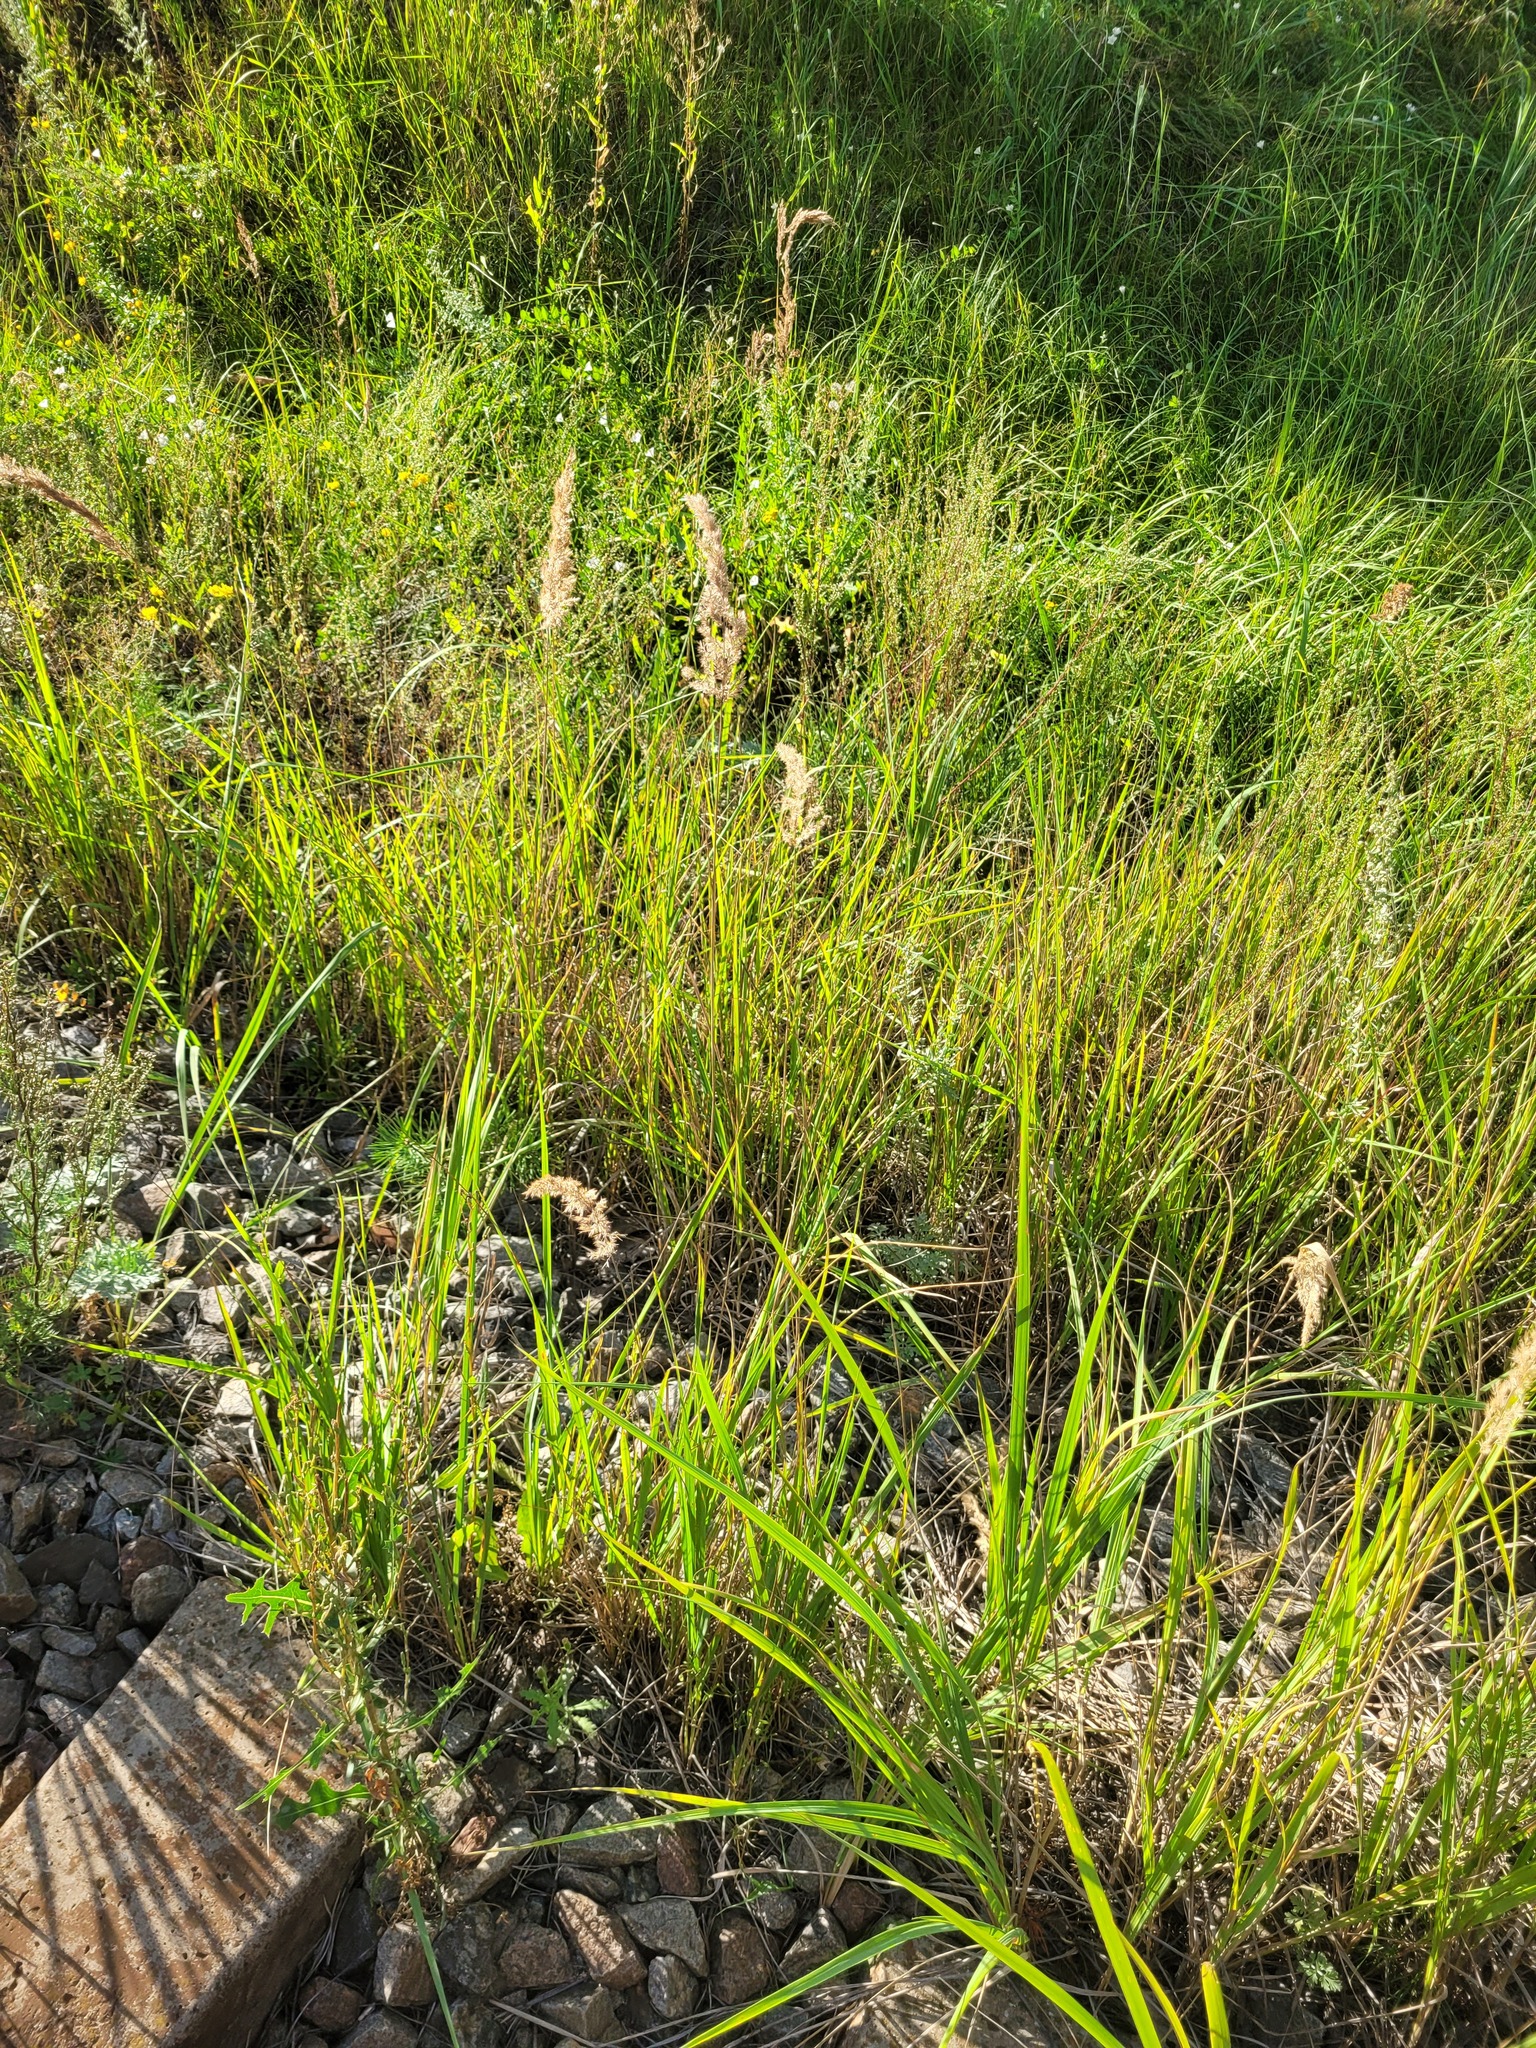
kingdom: Plantae
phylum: Tracheophyta
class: Liliopsida
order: Poales
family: Poaceae
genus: Calamagrostis
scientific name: Calamagrostis epigejos
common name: Wood small-reed
